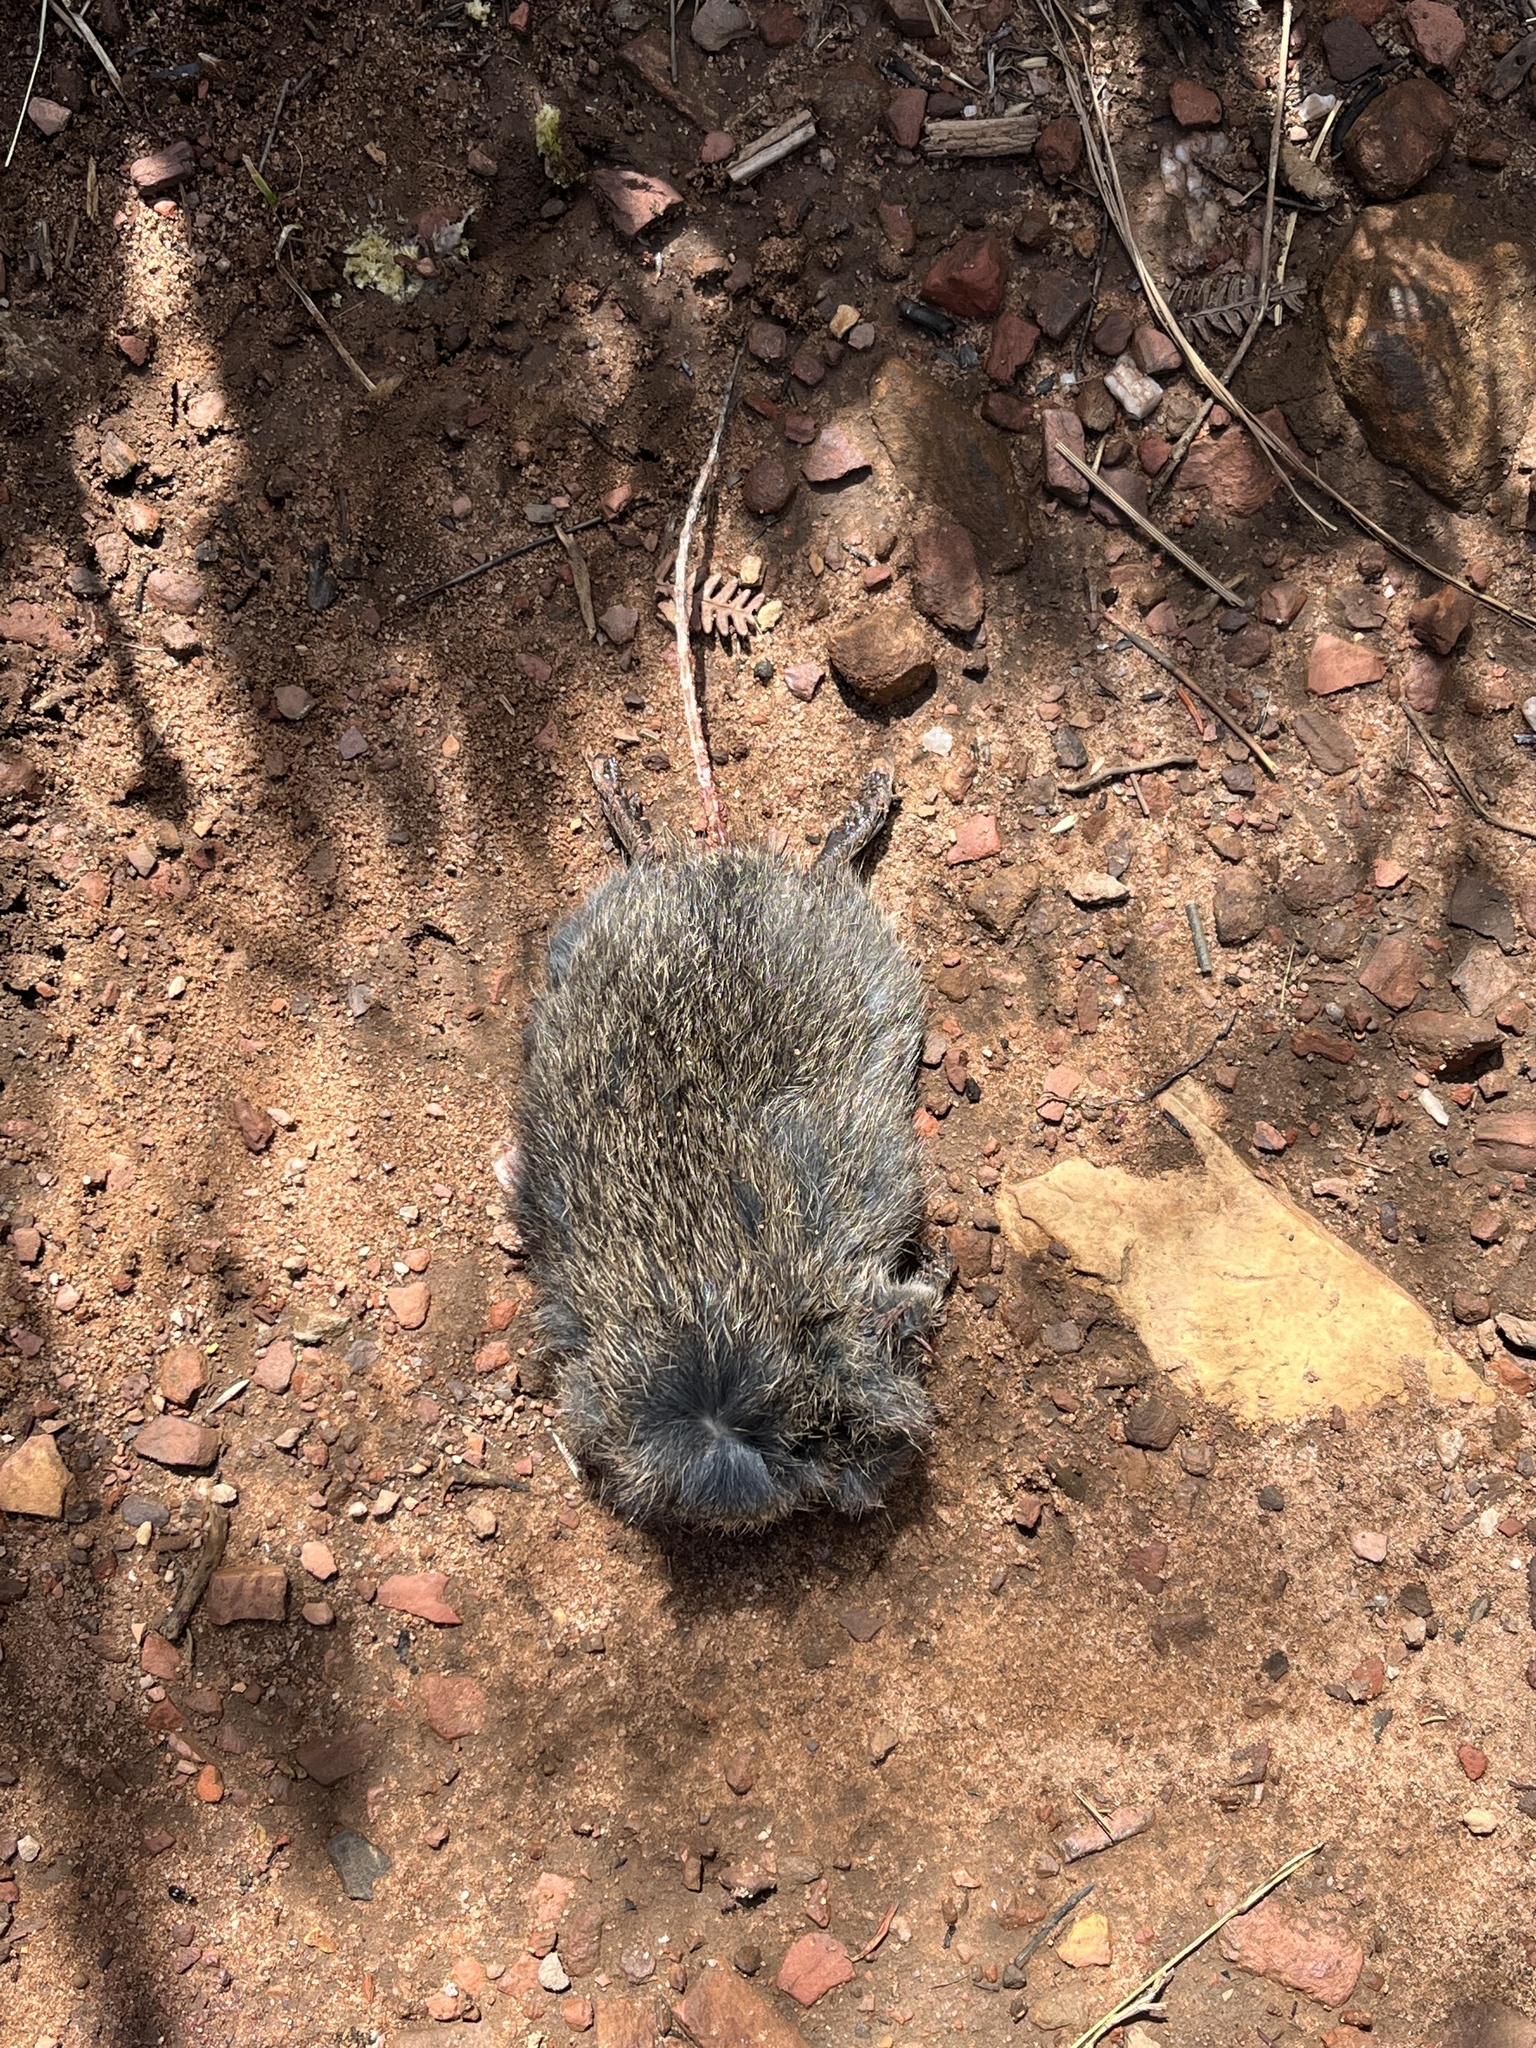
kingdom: Animalia
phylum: Chordata
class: Mammalia
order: Rodentia
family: Muridae
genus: Otomys
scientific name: Otomys irroratus
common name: Southern african vlei rat
